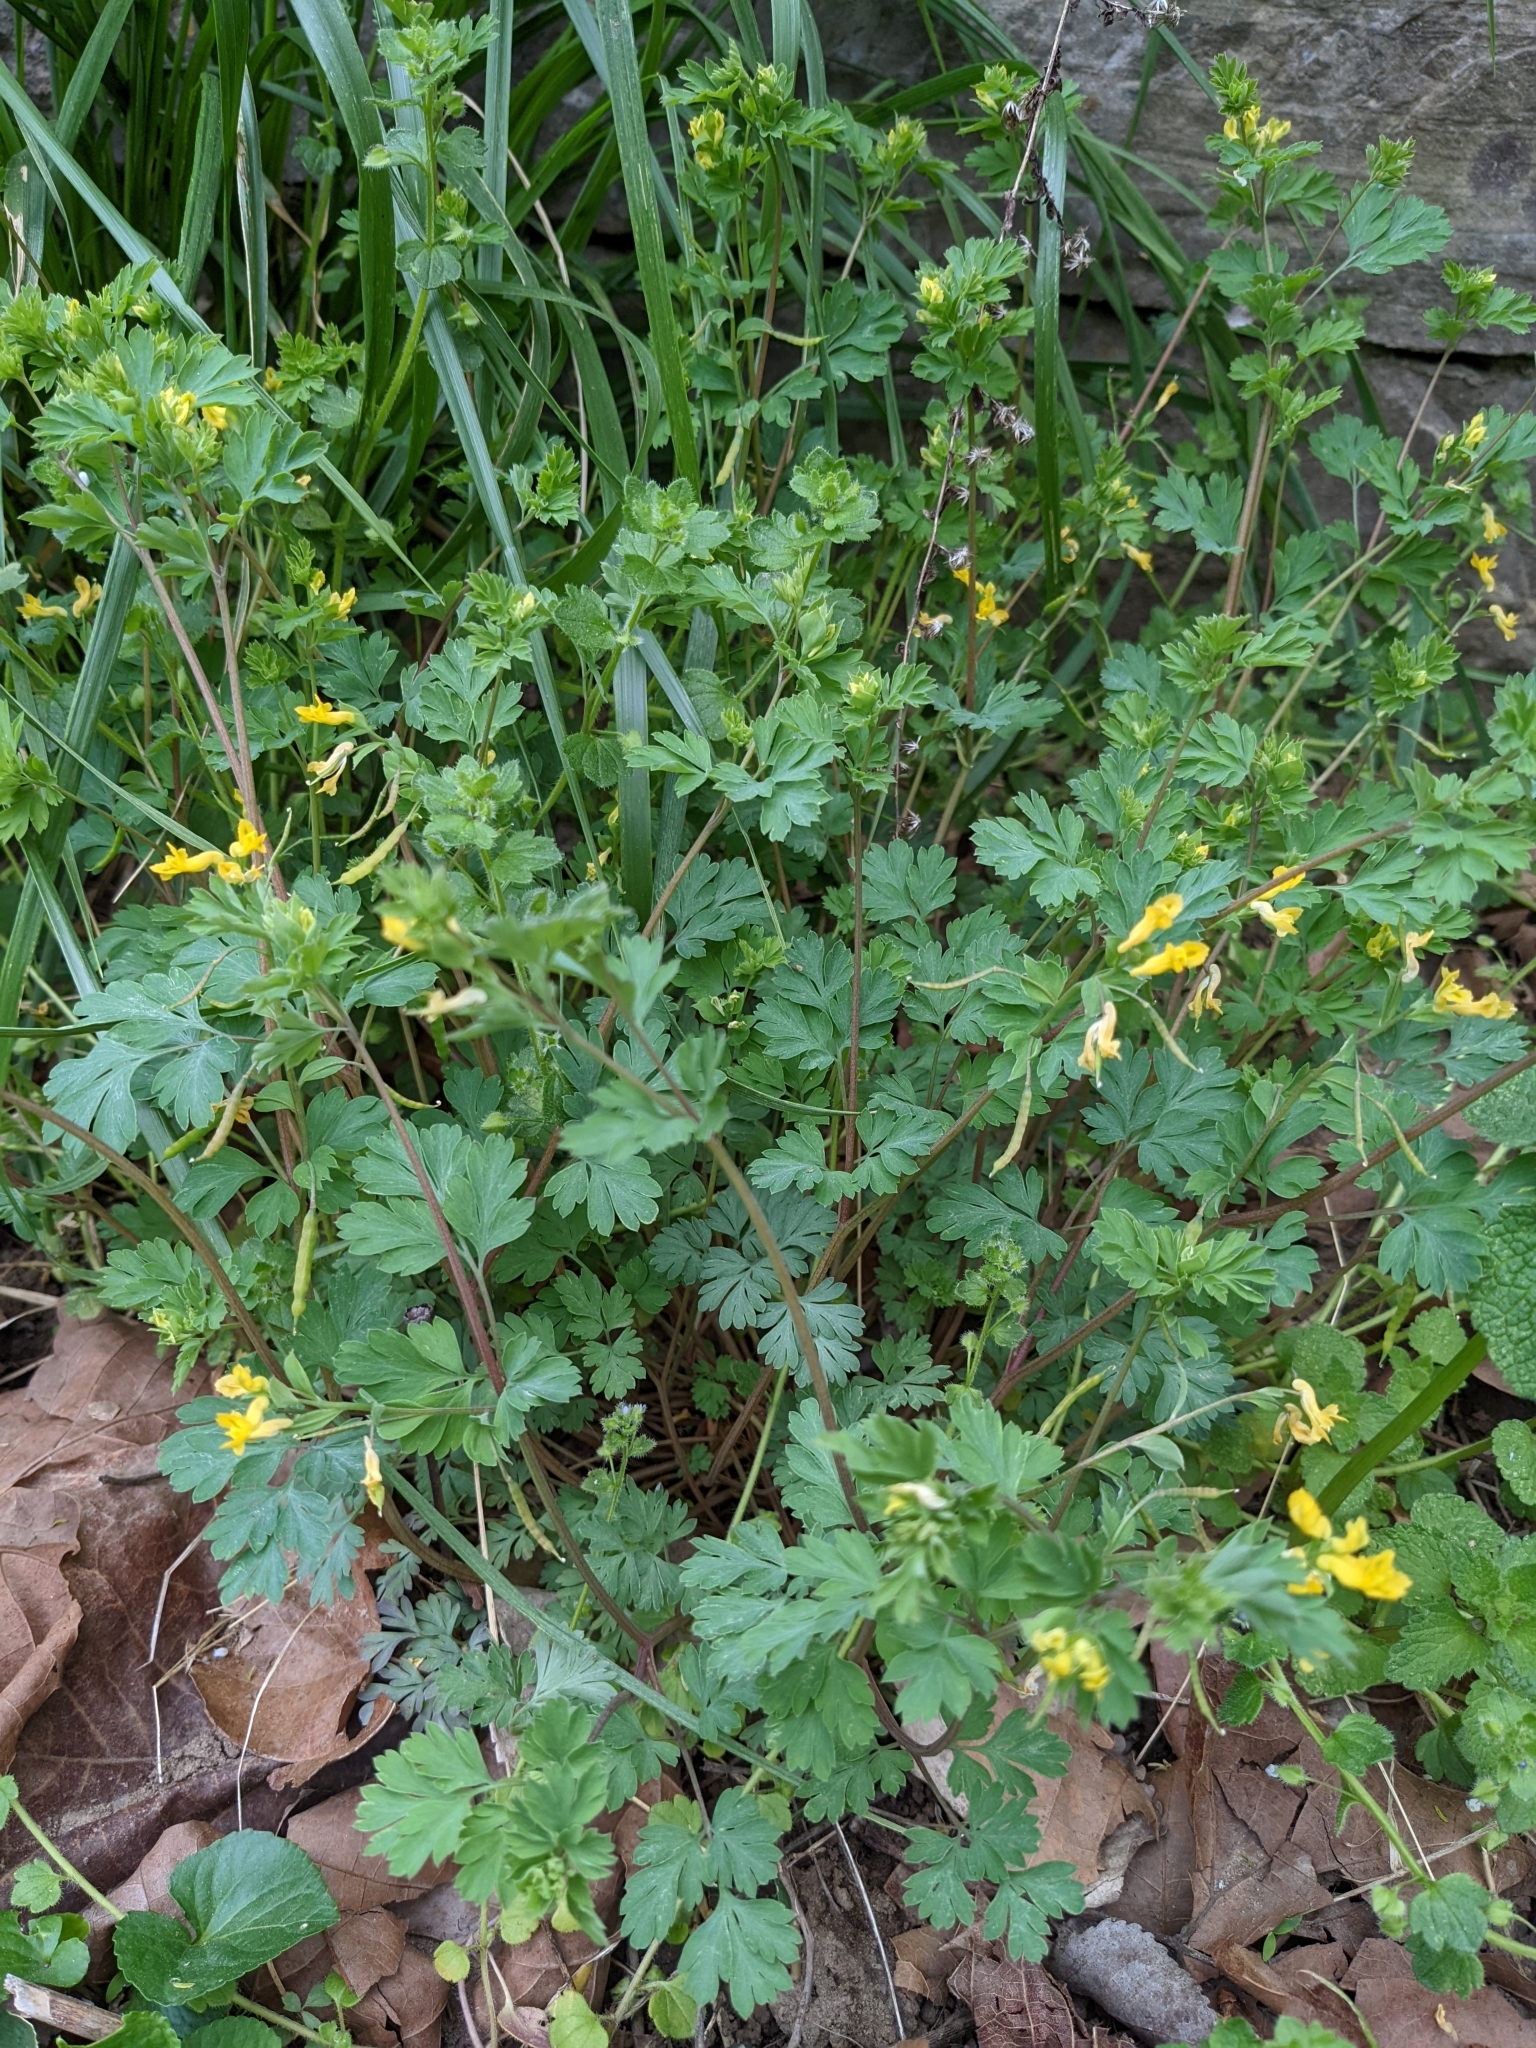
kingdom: Plantae
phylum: Tracheophyta
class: Magnoliopsida
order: Ranunculales
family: Papaveraceae
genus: Corydalis
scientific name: Corydalis flavula
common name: Yellow corydalis
